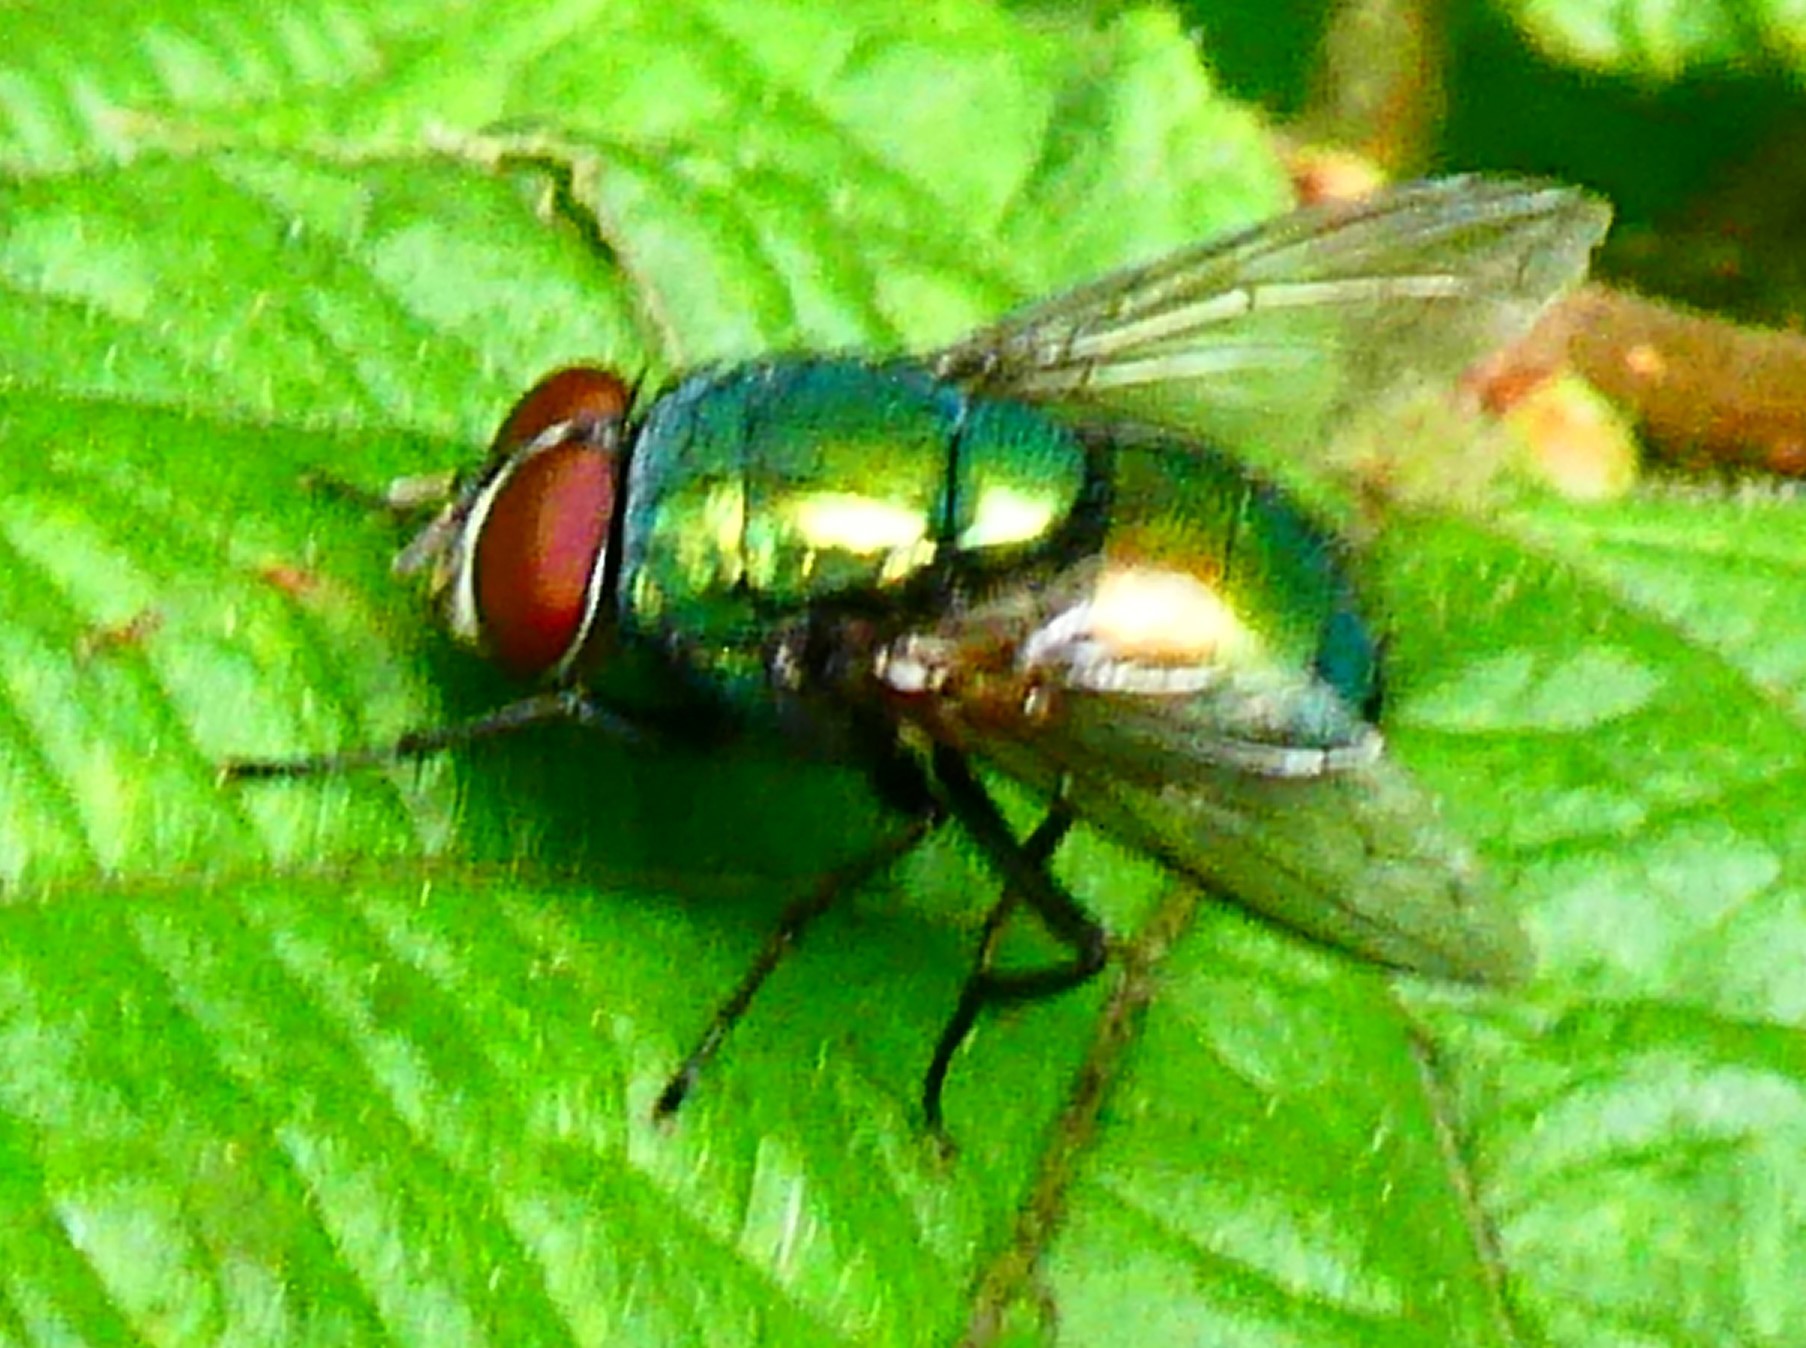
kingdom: Animalia
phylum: Arthropoda
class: Insecta
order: Diptera
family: Calliphoridae
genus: Lucilia
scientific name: Lucilia
